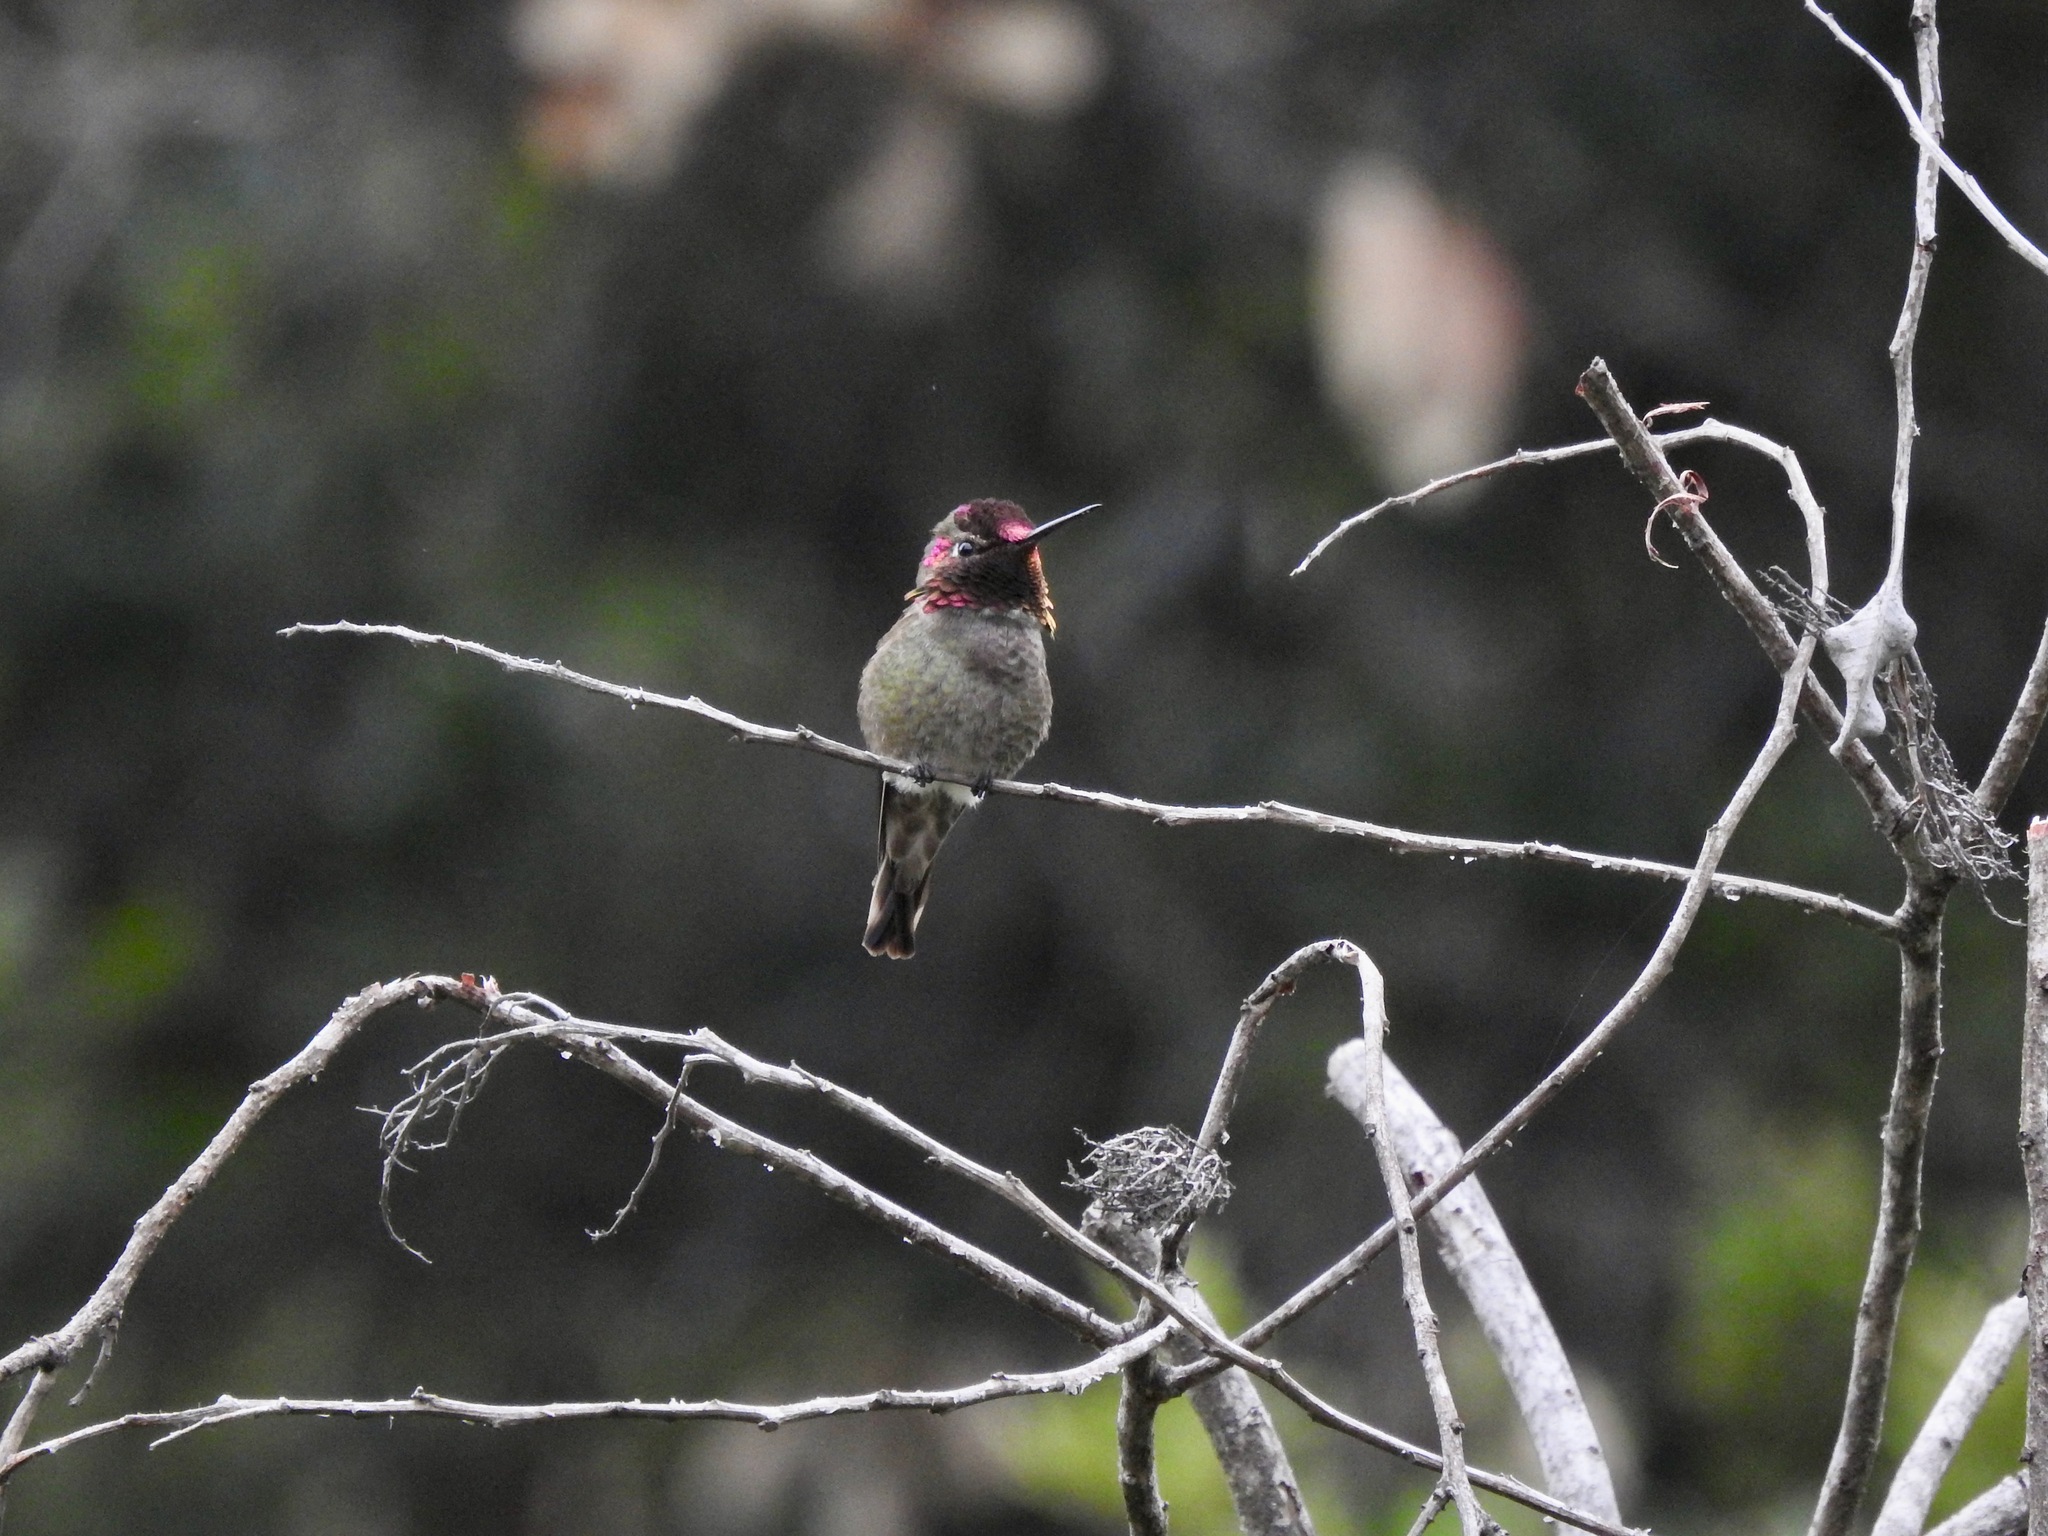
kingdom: Animalia
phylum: Chordata
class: Aves
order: Apodiformes
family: Trochilidae
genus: Calypte
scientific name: Calypte anna
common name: Anna's hummingbird
